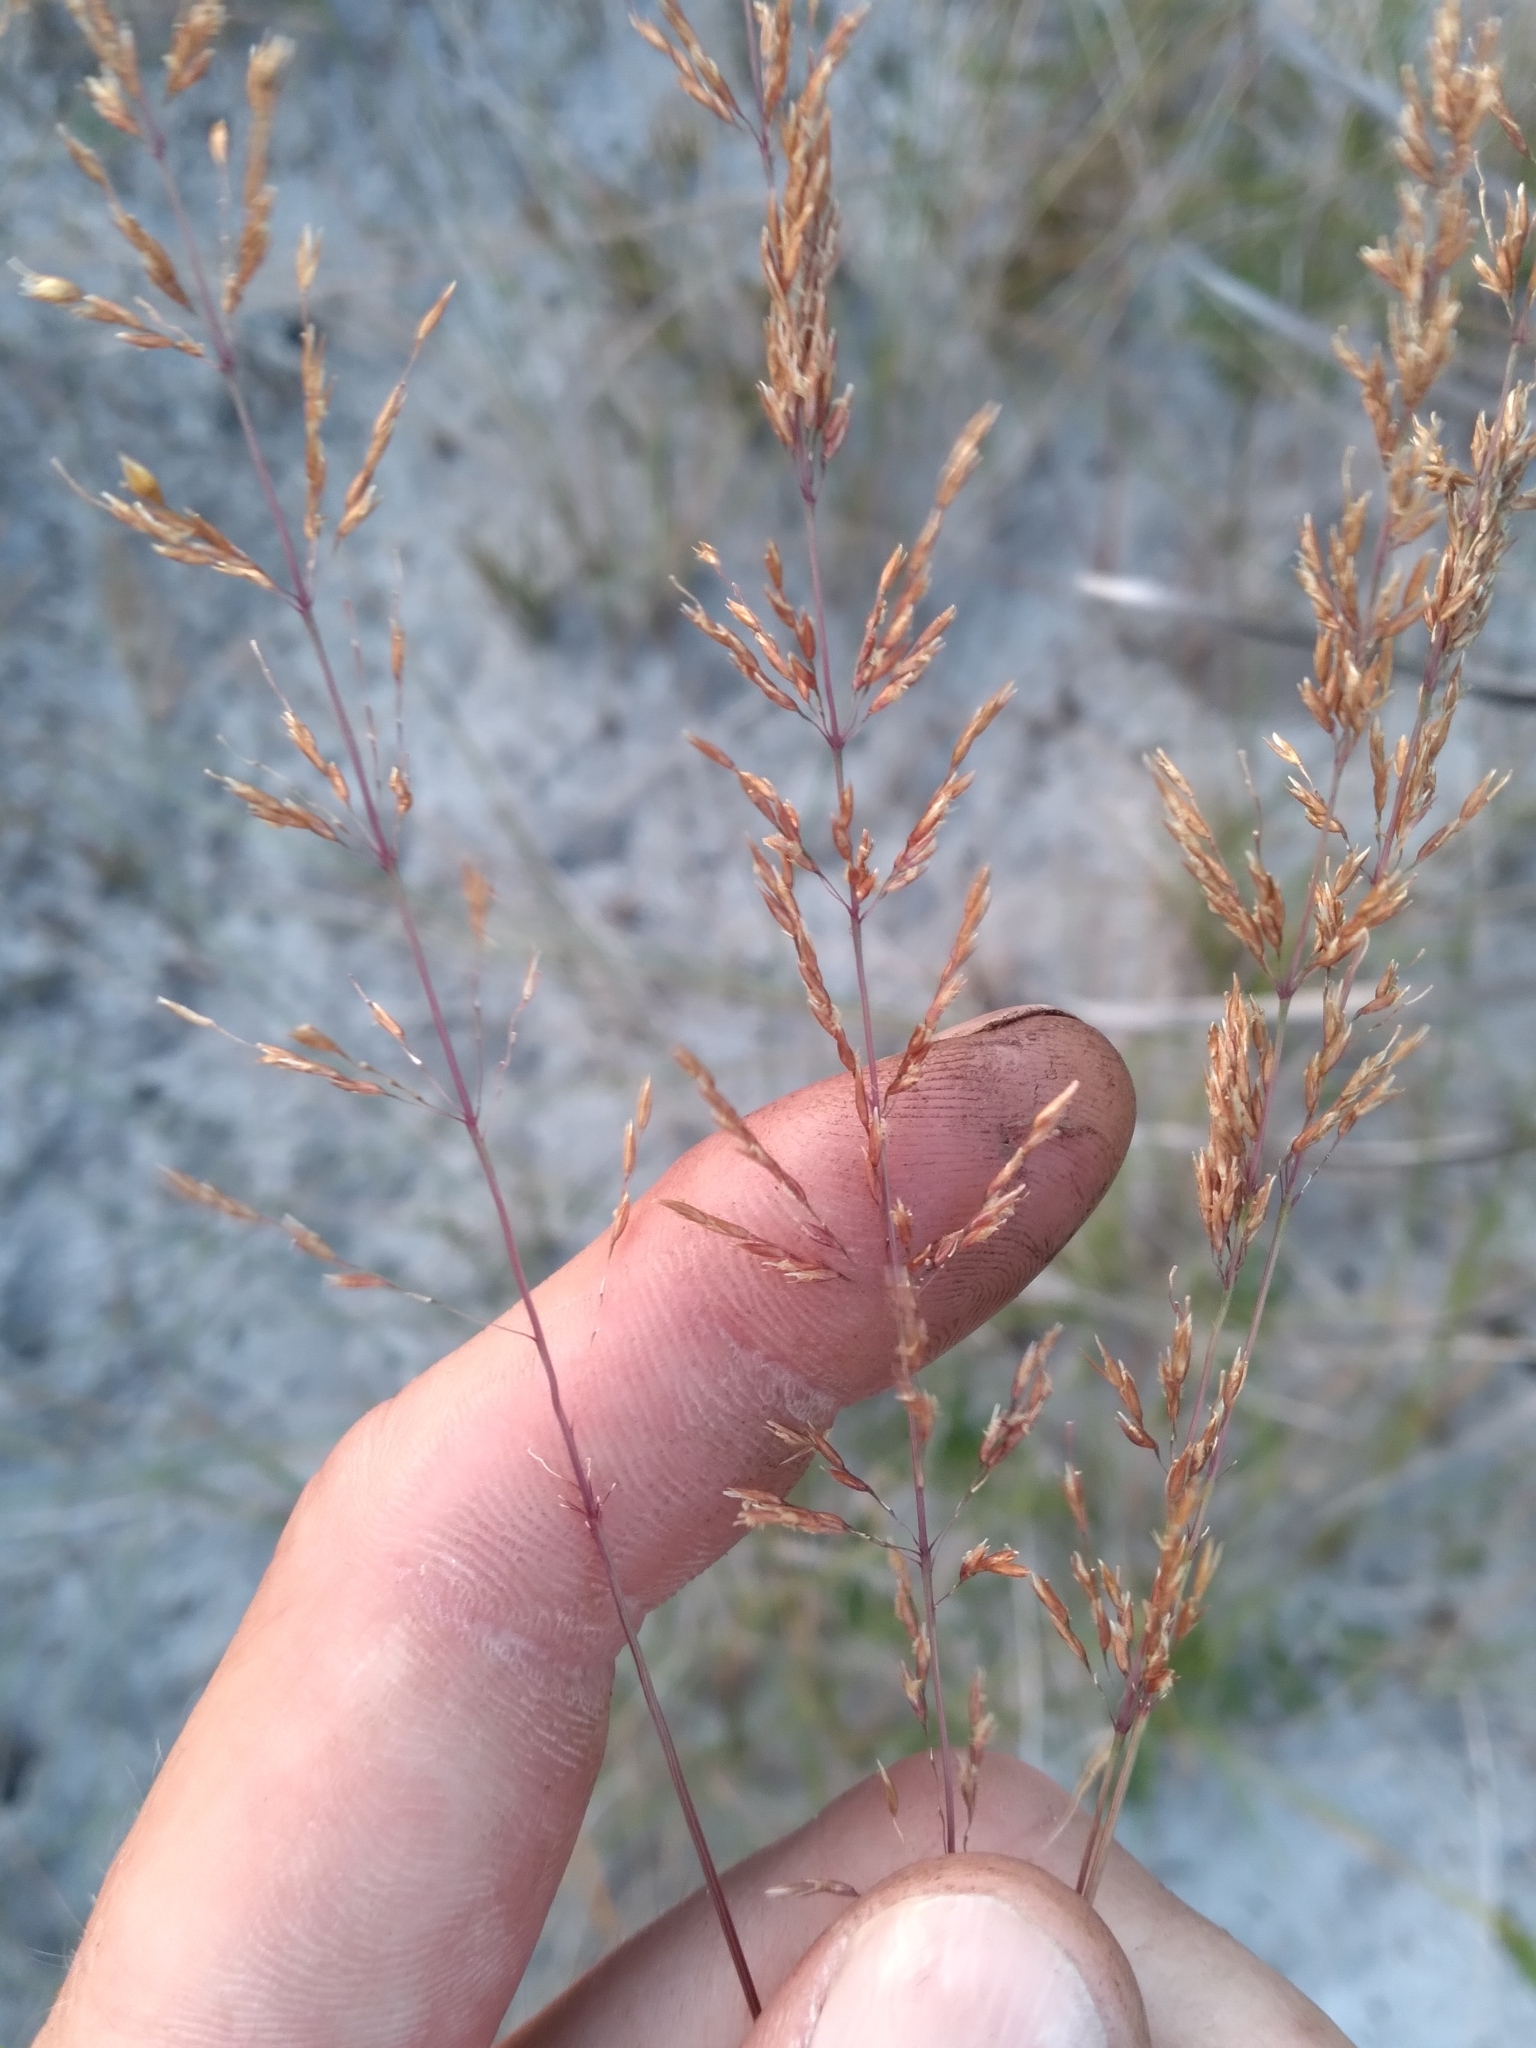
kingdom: Plantae
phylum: Tracheophyta
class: Liliopsida
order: Poales
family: Poaceae
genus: Sporobolus
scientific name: Sporobolus junceus
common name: Lizard grass
